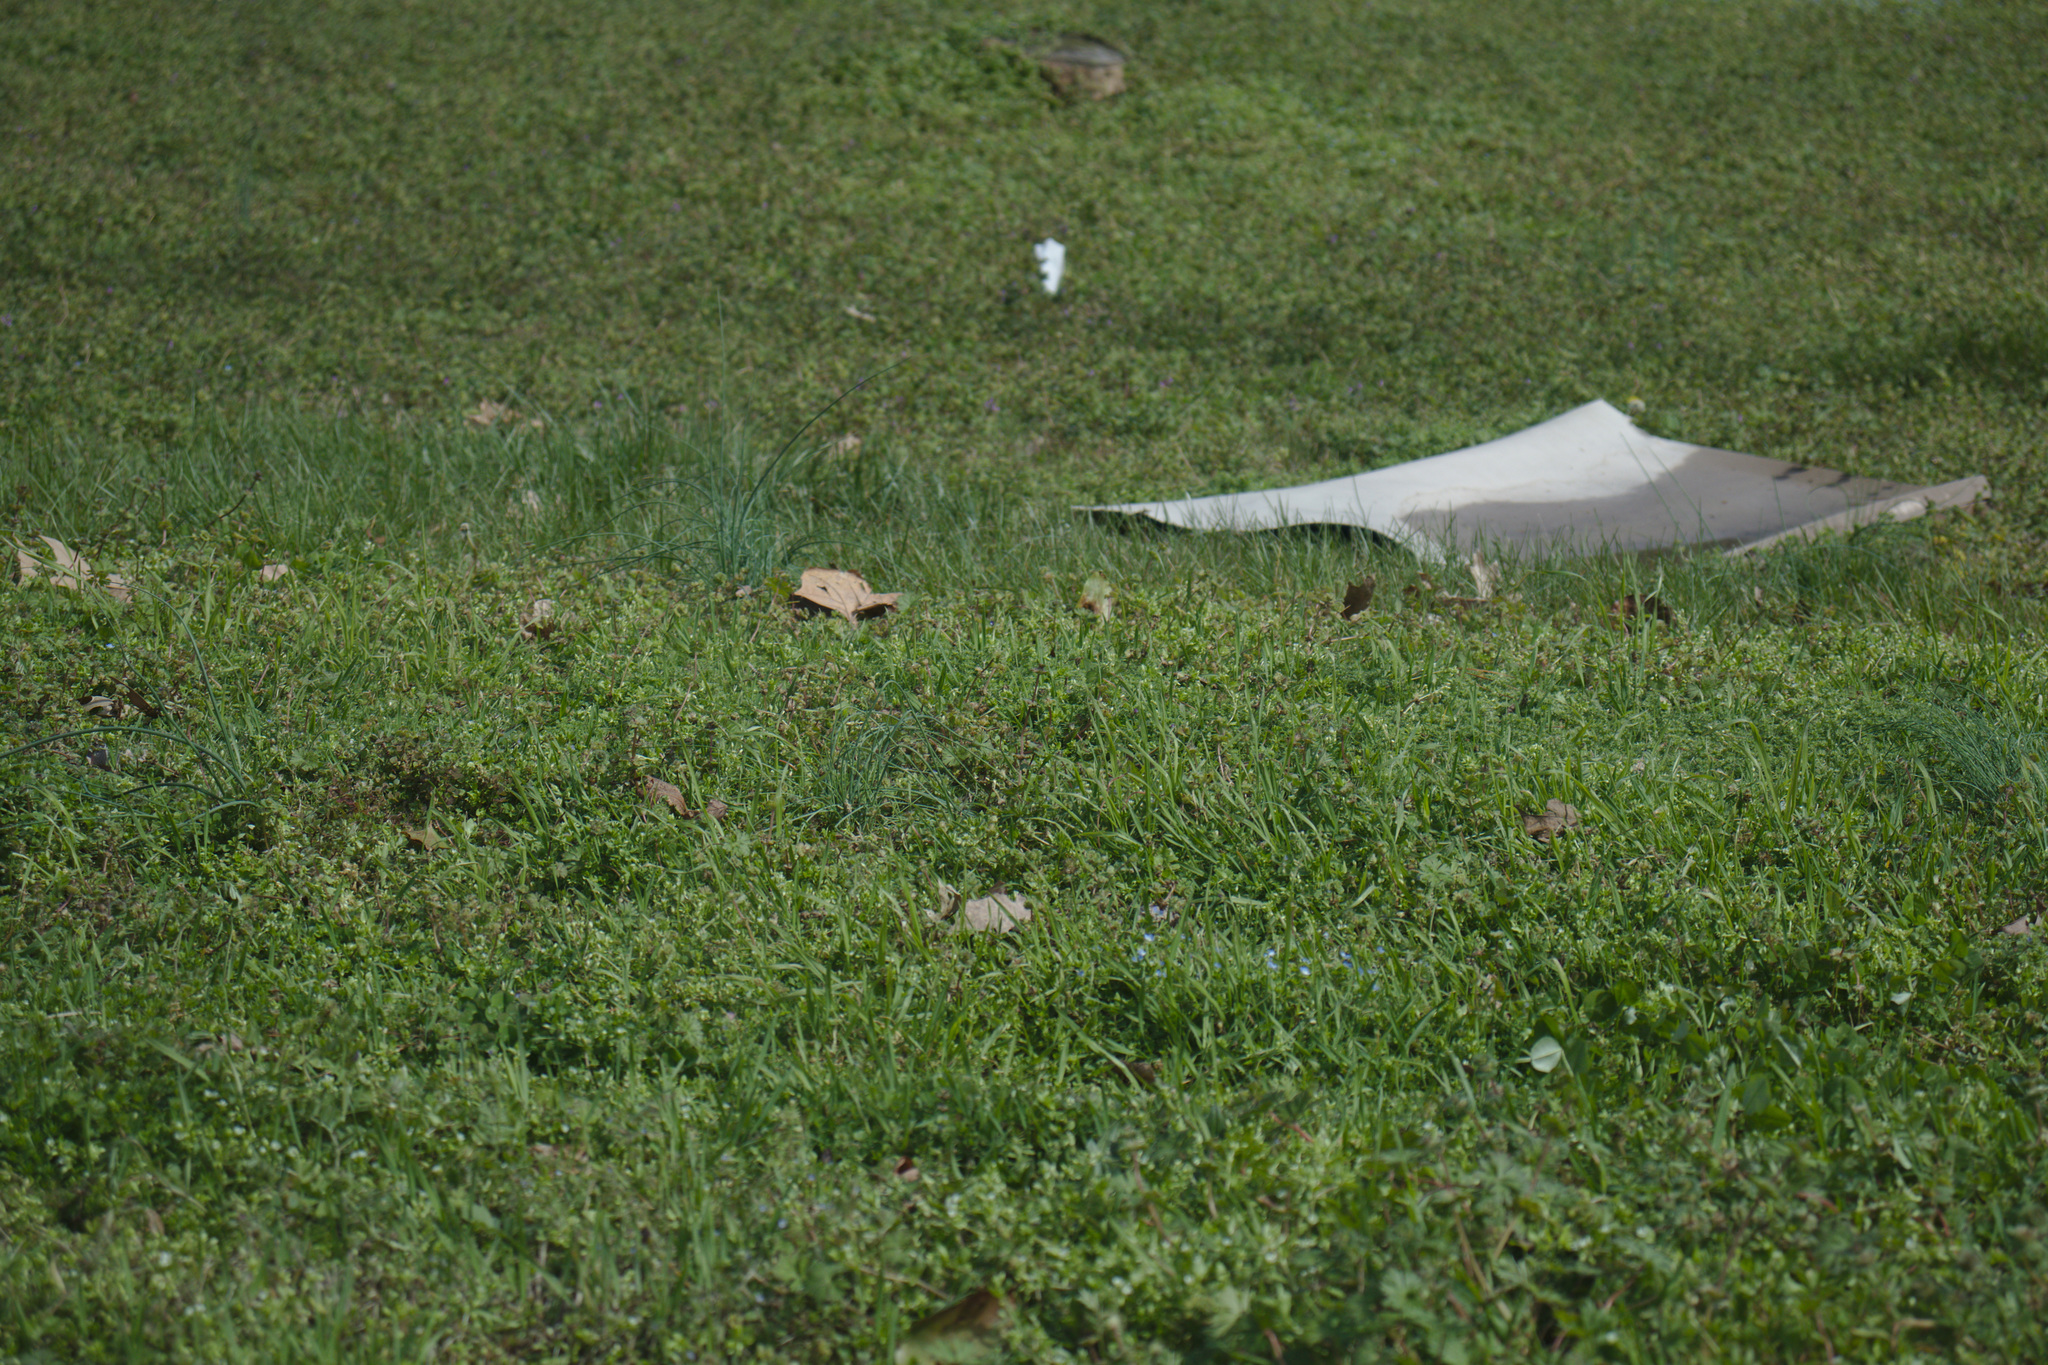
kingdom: Plantae
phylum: Tracheophyta
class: Liliopsida
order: Asparagales
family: Amaryllidaceae
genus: Allium
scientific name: Allium vineale
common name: Crow garlic
